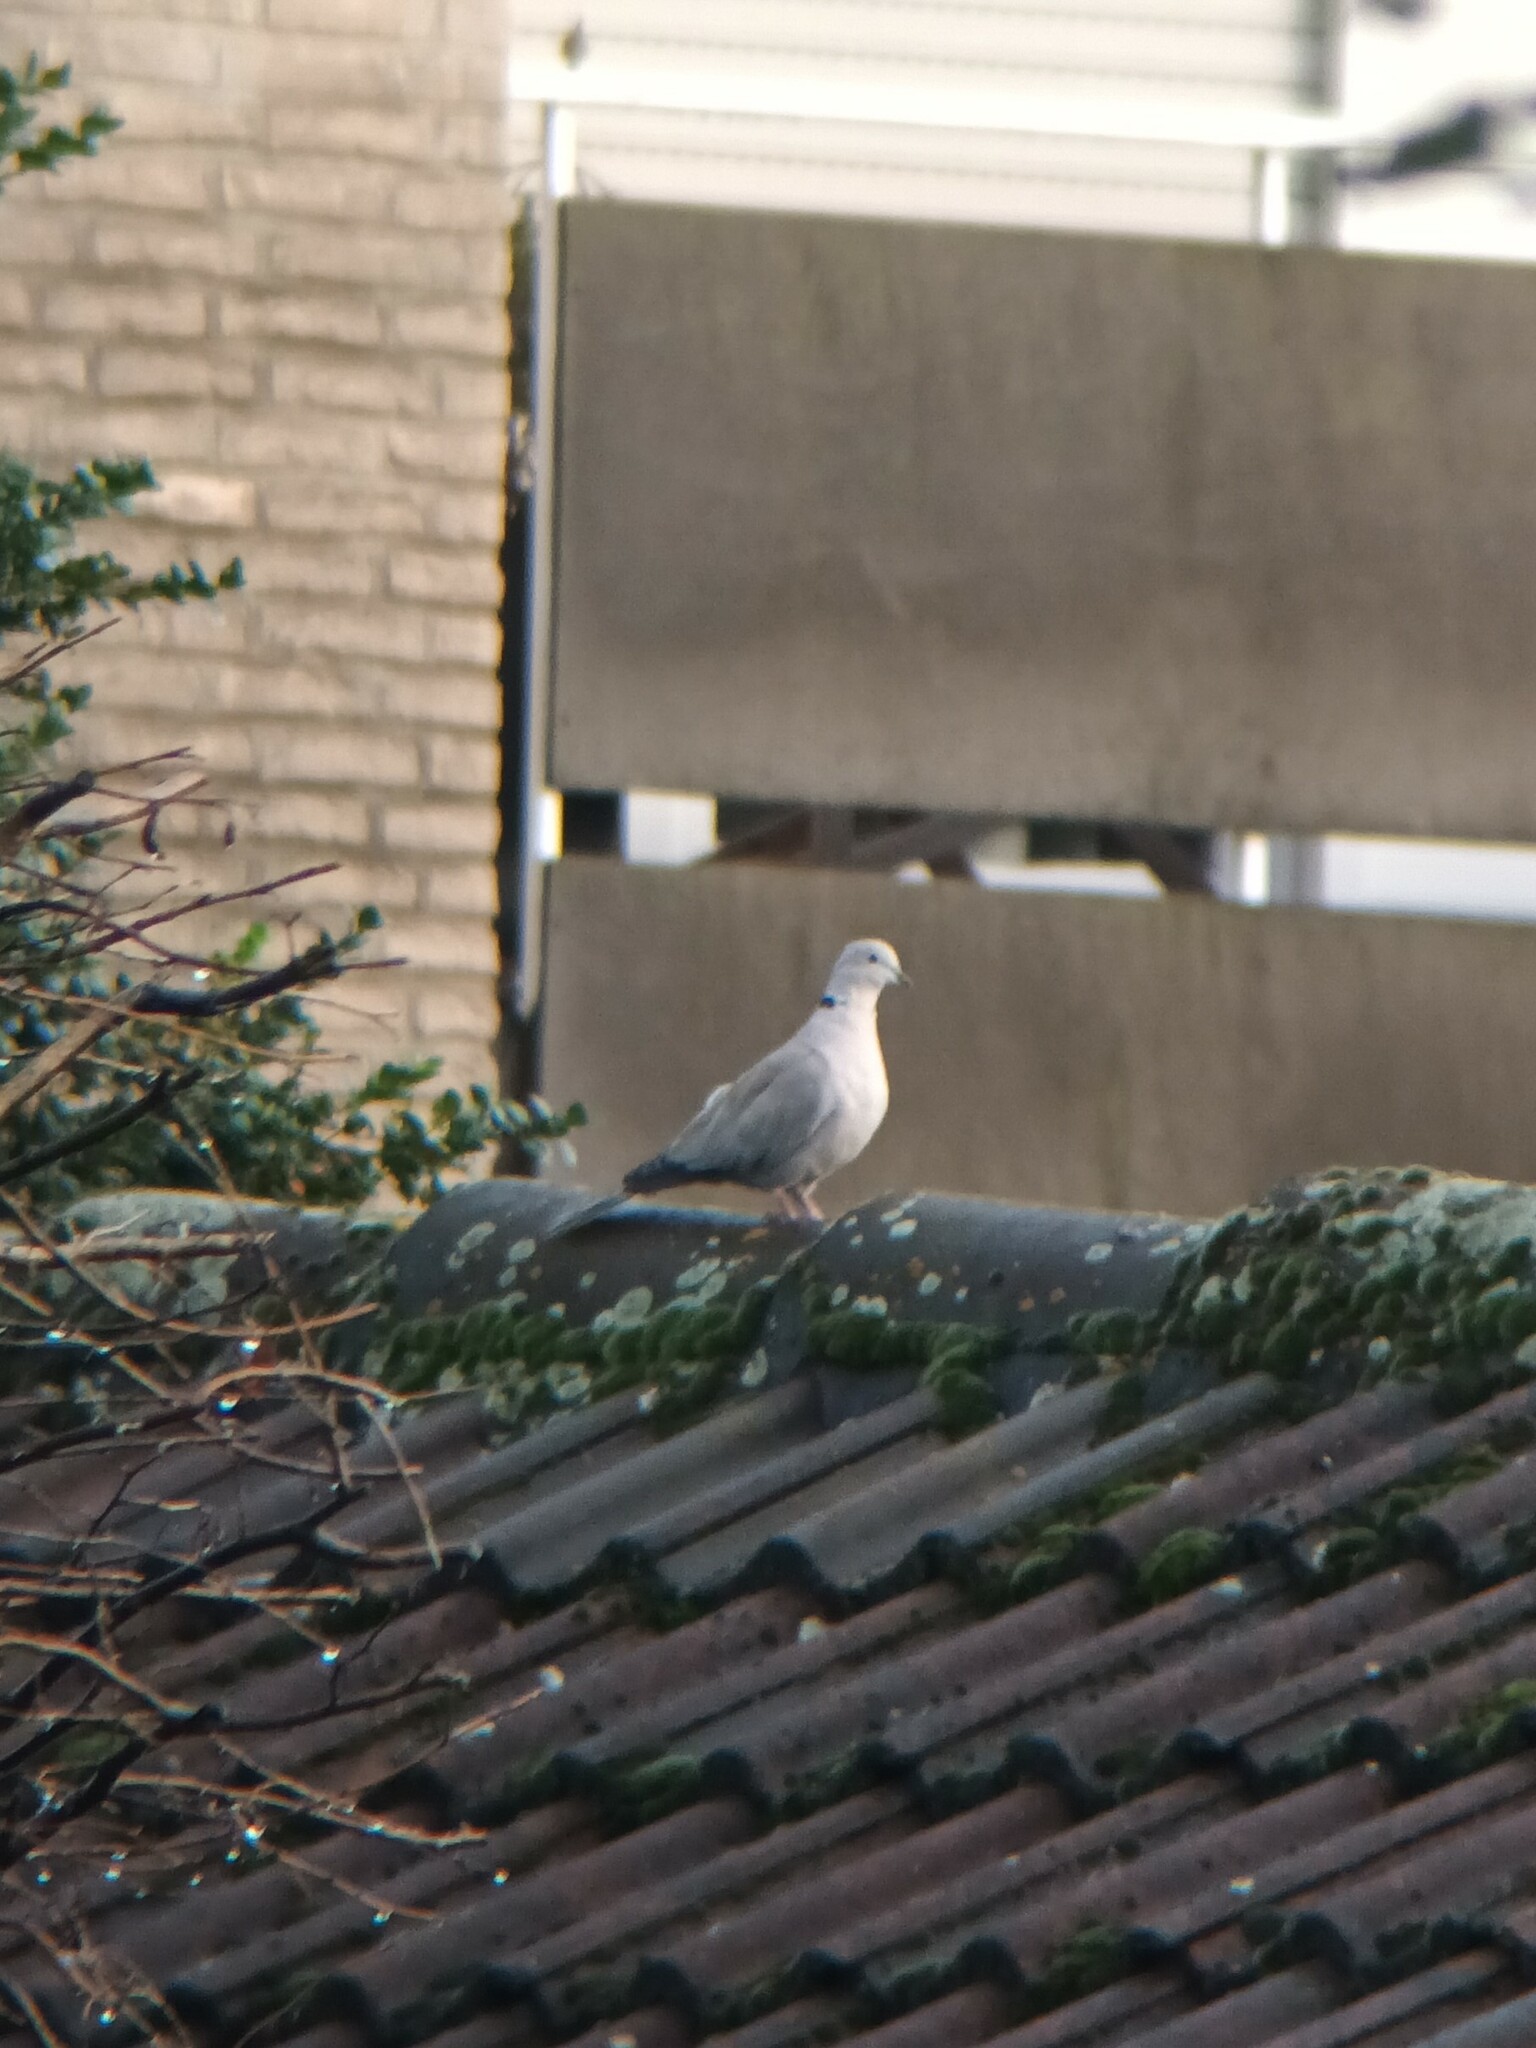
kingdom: Animalia
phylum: Chordata
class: Aves
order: Columbiformes
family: Columbidae
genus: Streptopelia
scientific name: Streptopelia decaocto
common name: Eurasian collared dove
